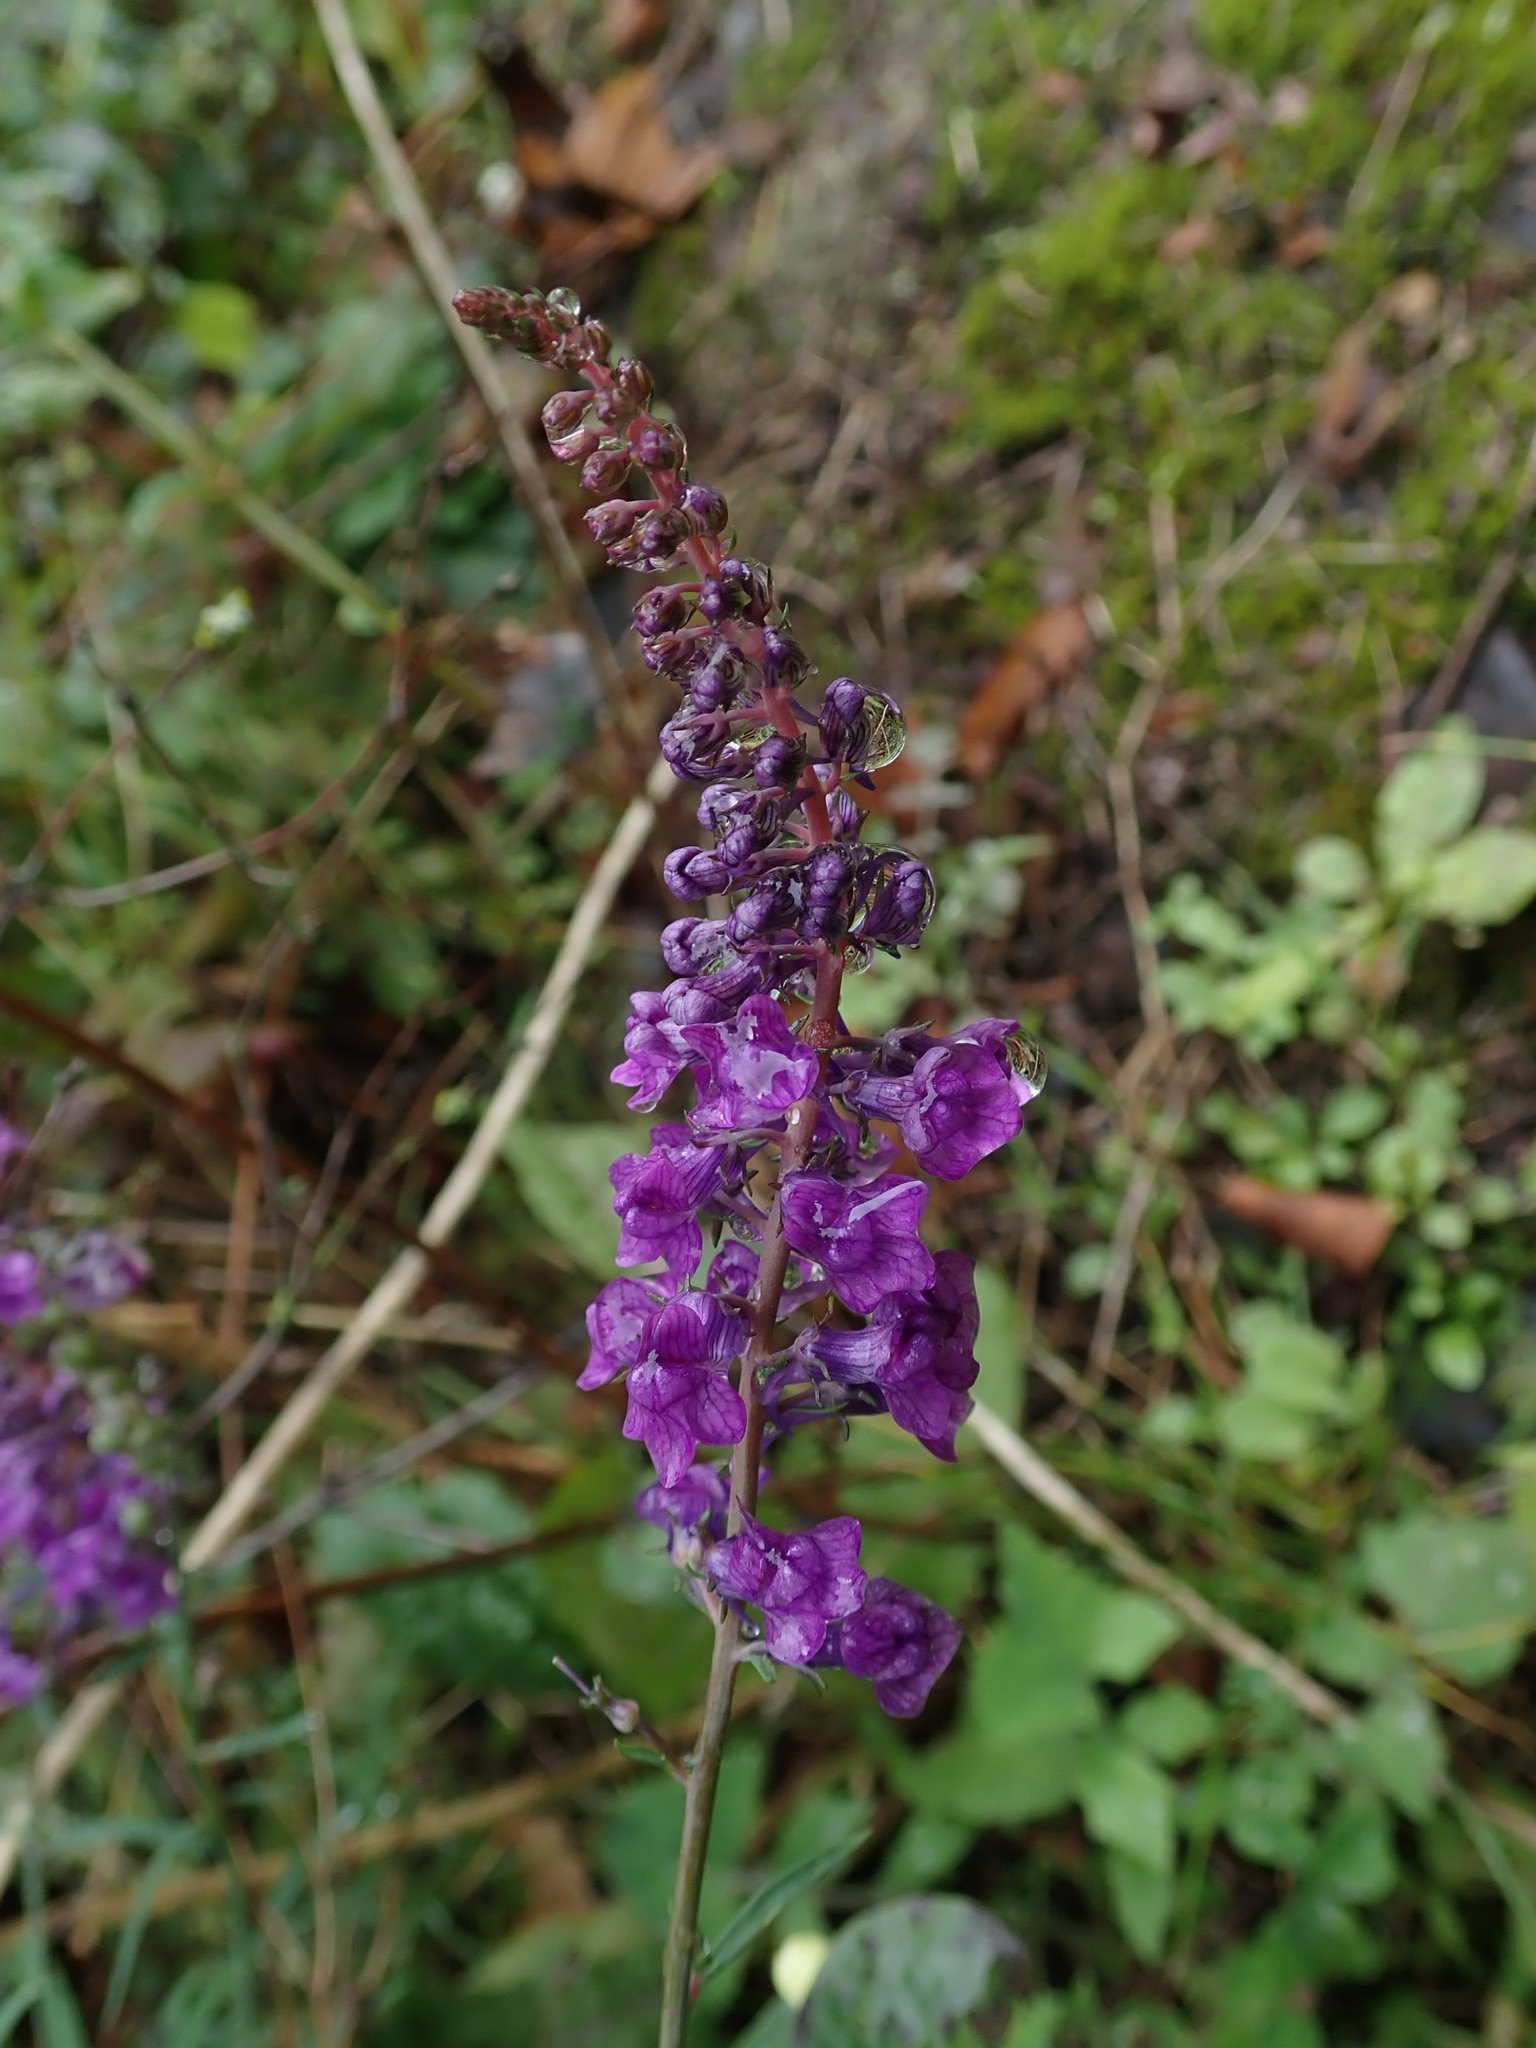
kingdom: Plantae
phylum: Tracheophyta
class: Magnoliopsida
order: Lamiales
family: Plantaginaceae
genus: Linaria
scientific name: Linaria purpurea
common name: Purple toadflax
